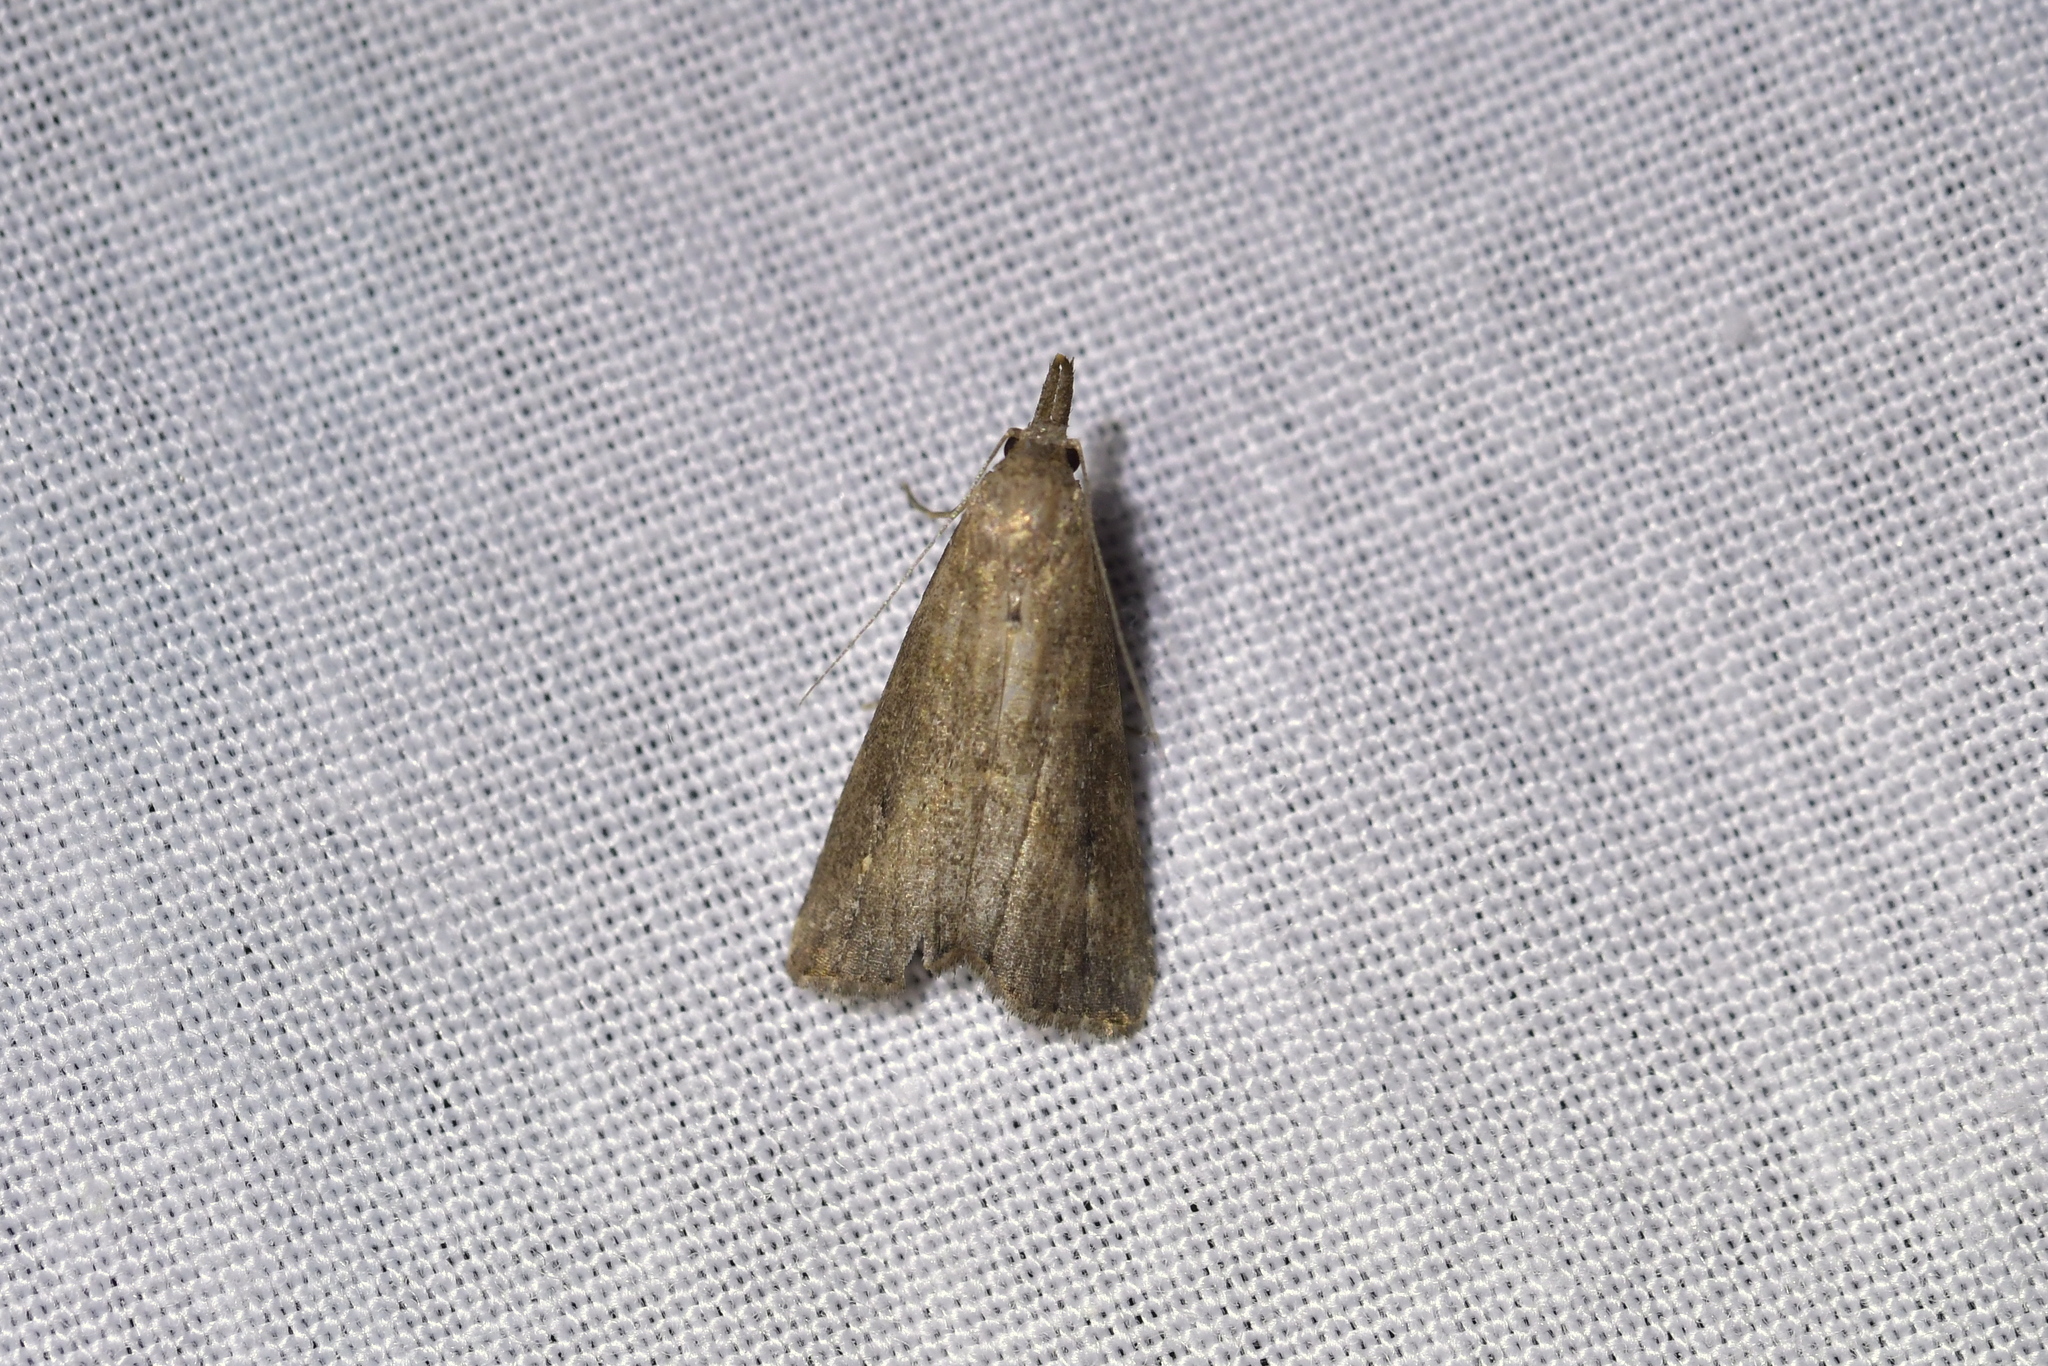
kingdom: Animalia
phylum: Arthropoda
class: Insecta
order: Lepidoptera
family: Erebidae
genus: Schrankia
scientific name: Schrankia costaestrigalis
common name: Pinion-streaked snout
